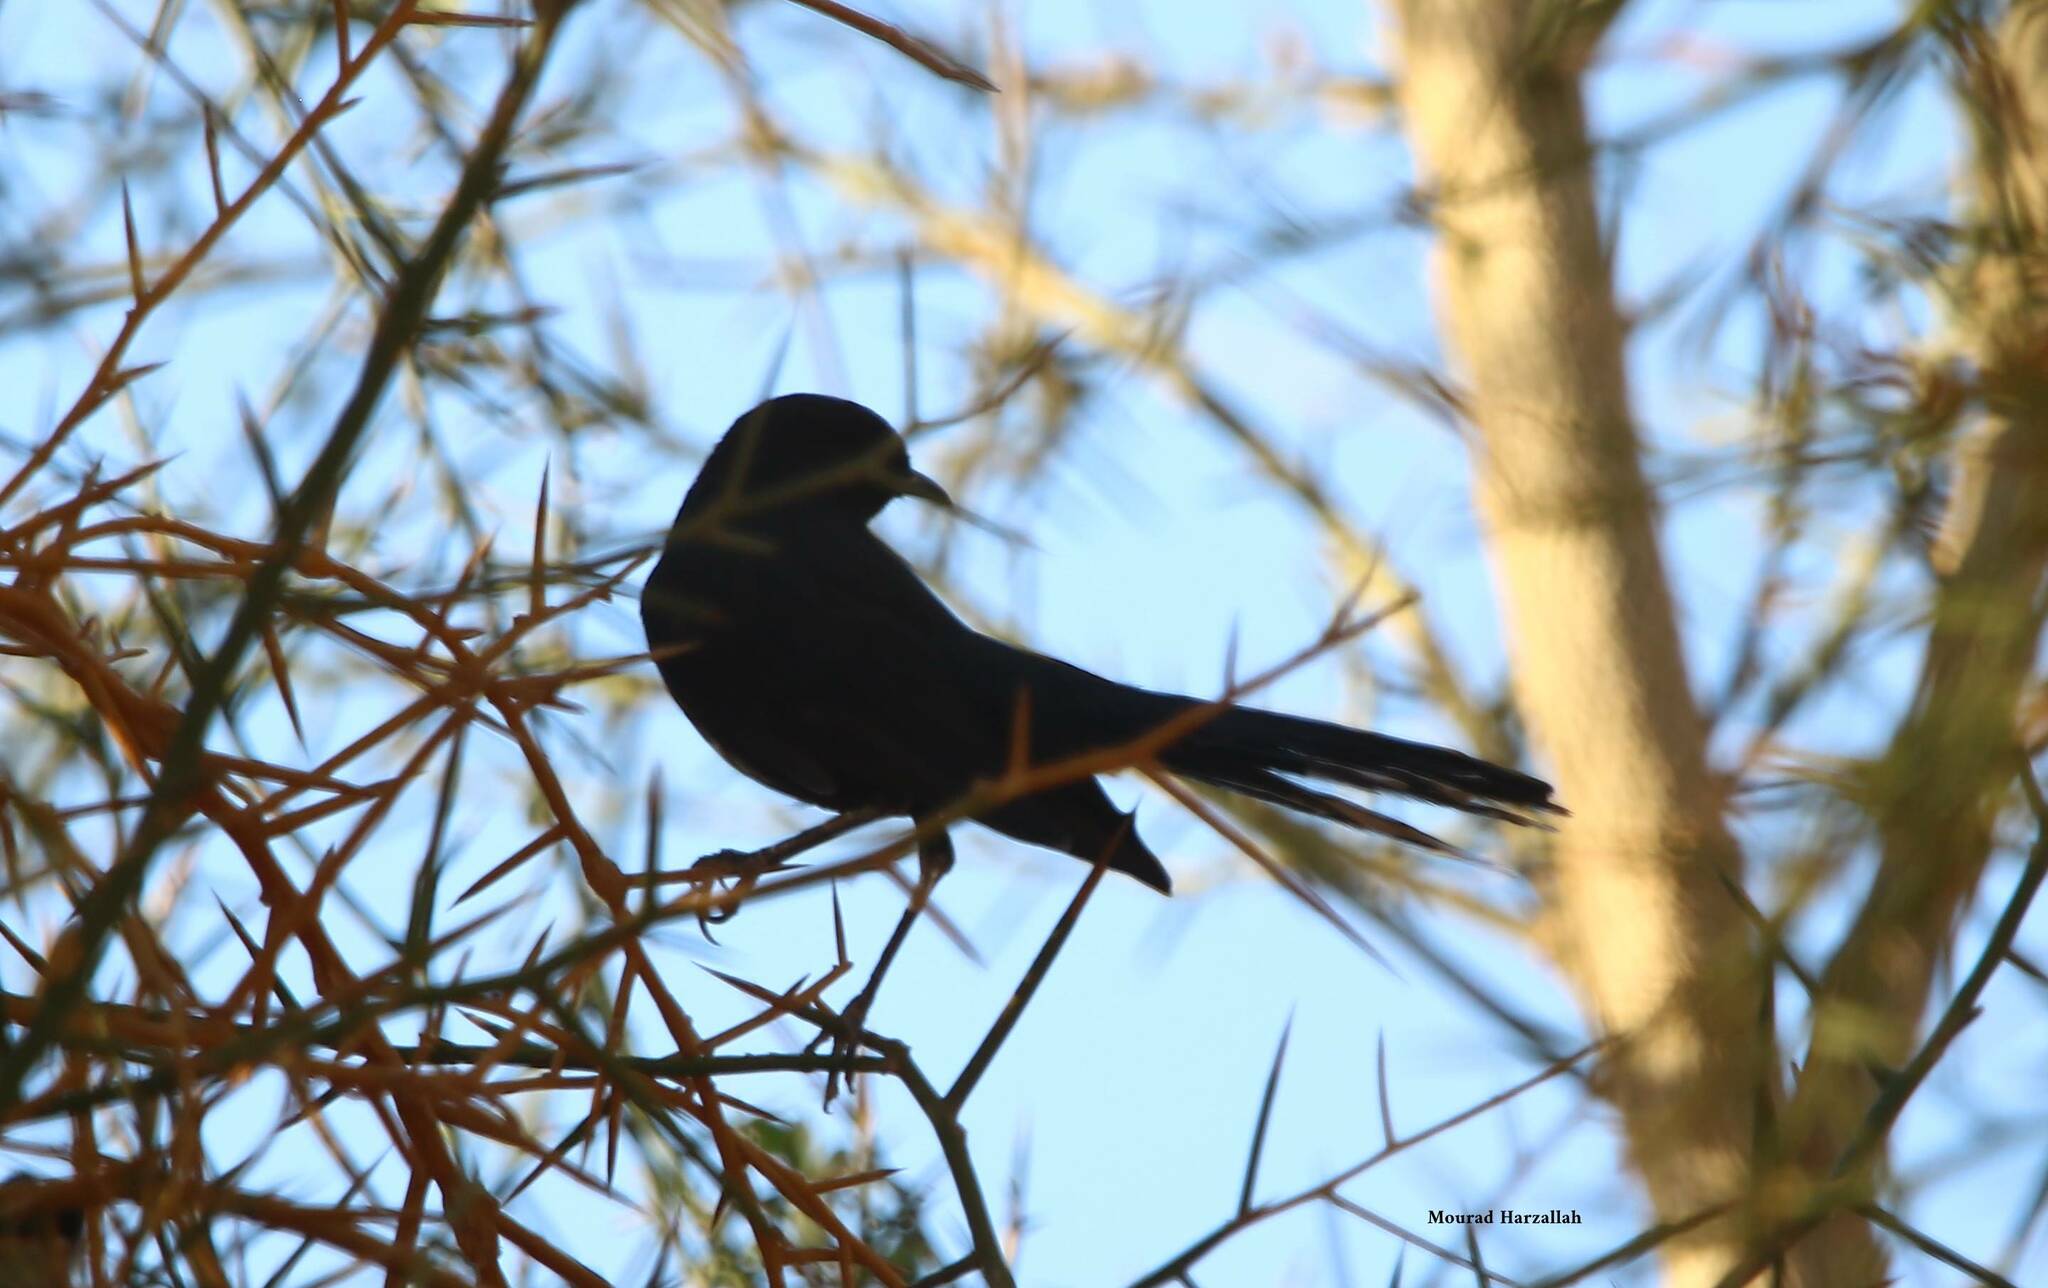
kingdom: Animalia
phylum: Chordata
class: Aves
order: Passeriformes
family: Muscicapidae
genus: Cercotrichas
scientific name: Cercotrichas podobe
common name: Black scrub robin
